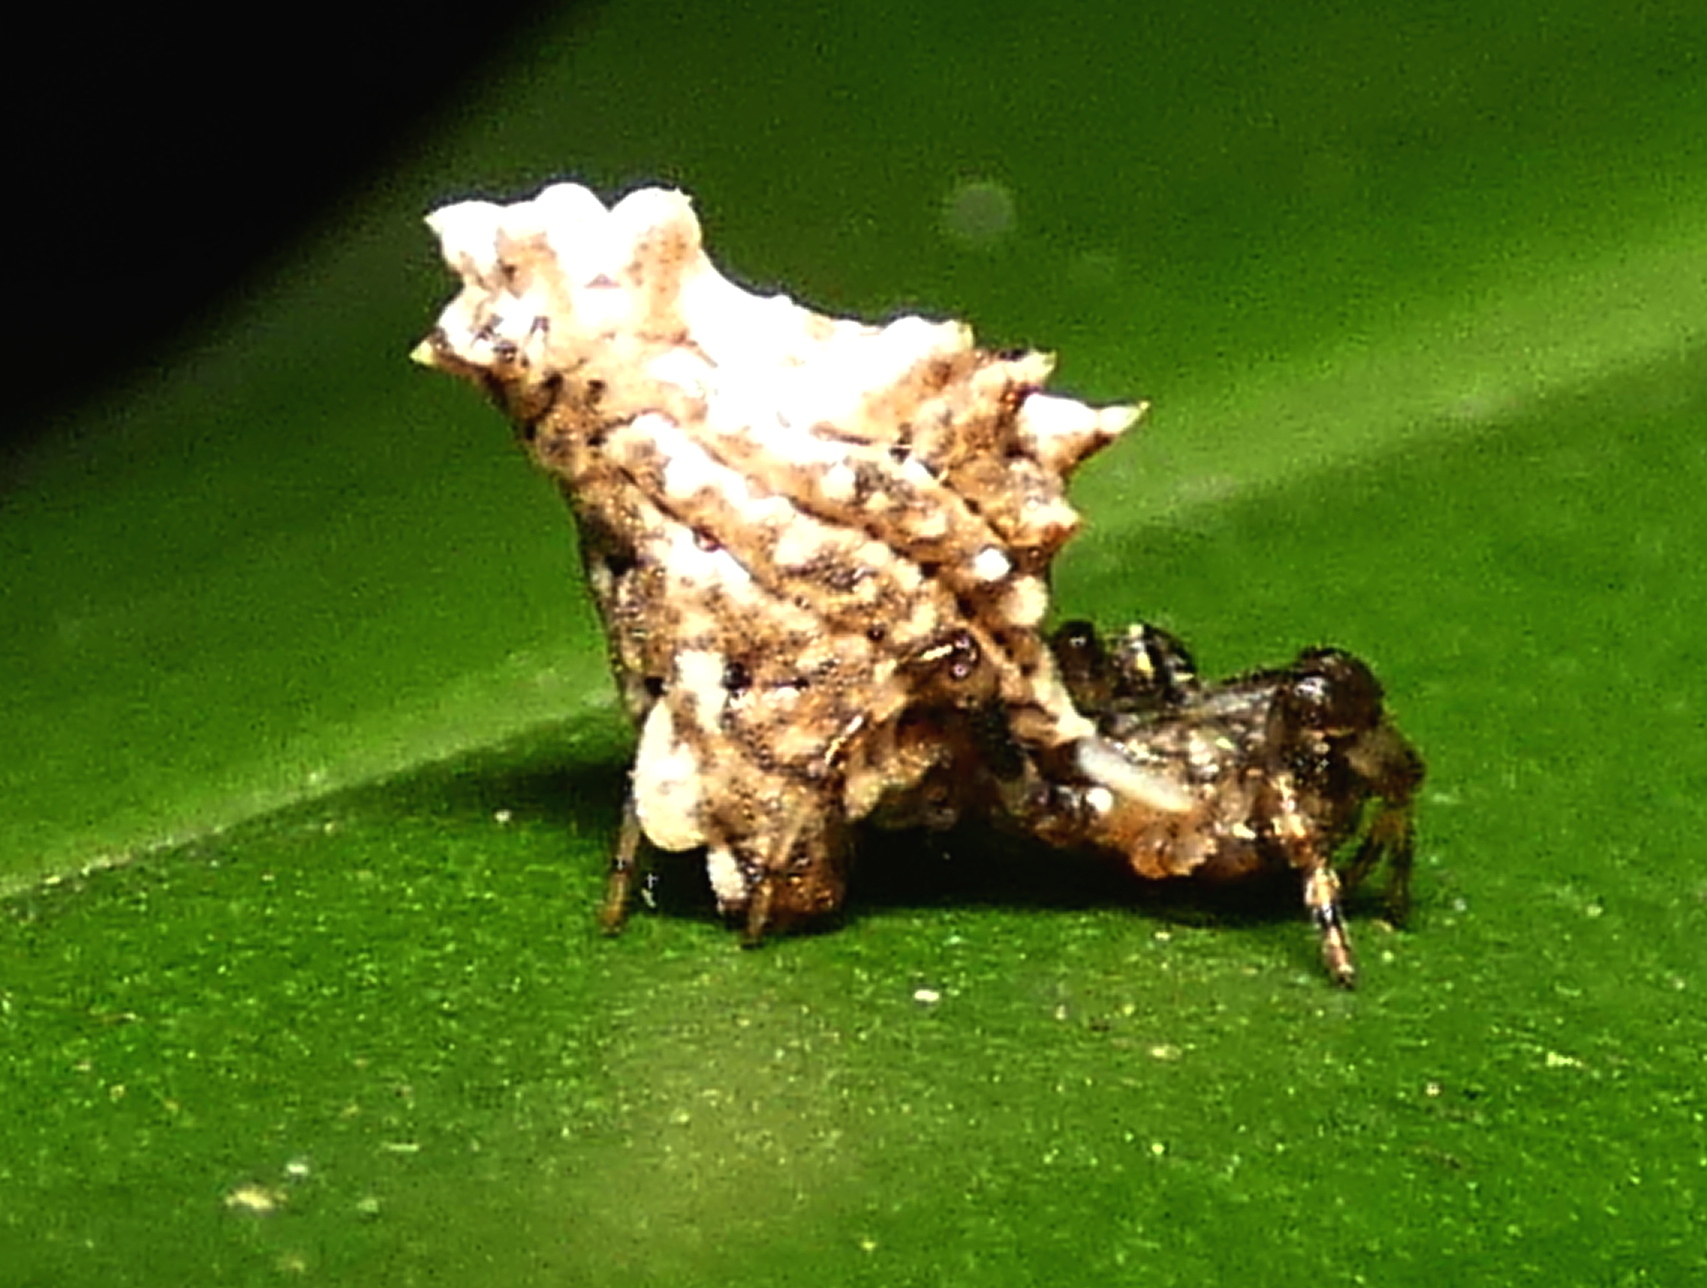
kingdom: Animalia
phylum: Arthropoda
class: Arachnida
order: Araneae
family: Araneidae
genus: Micrathena
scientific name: Micrathena horrida
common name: Orb weavers
